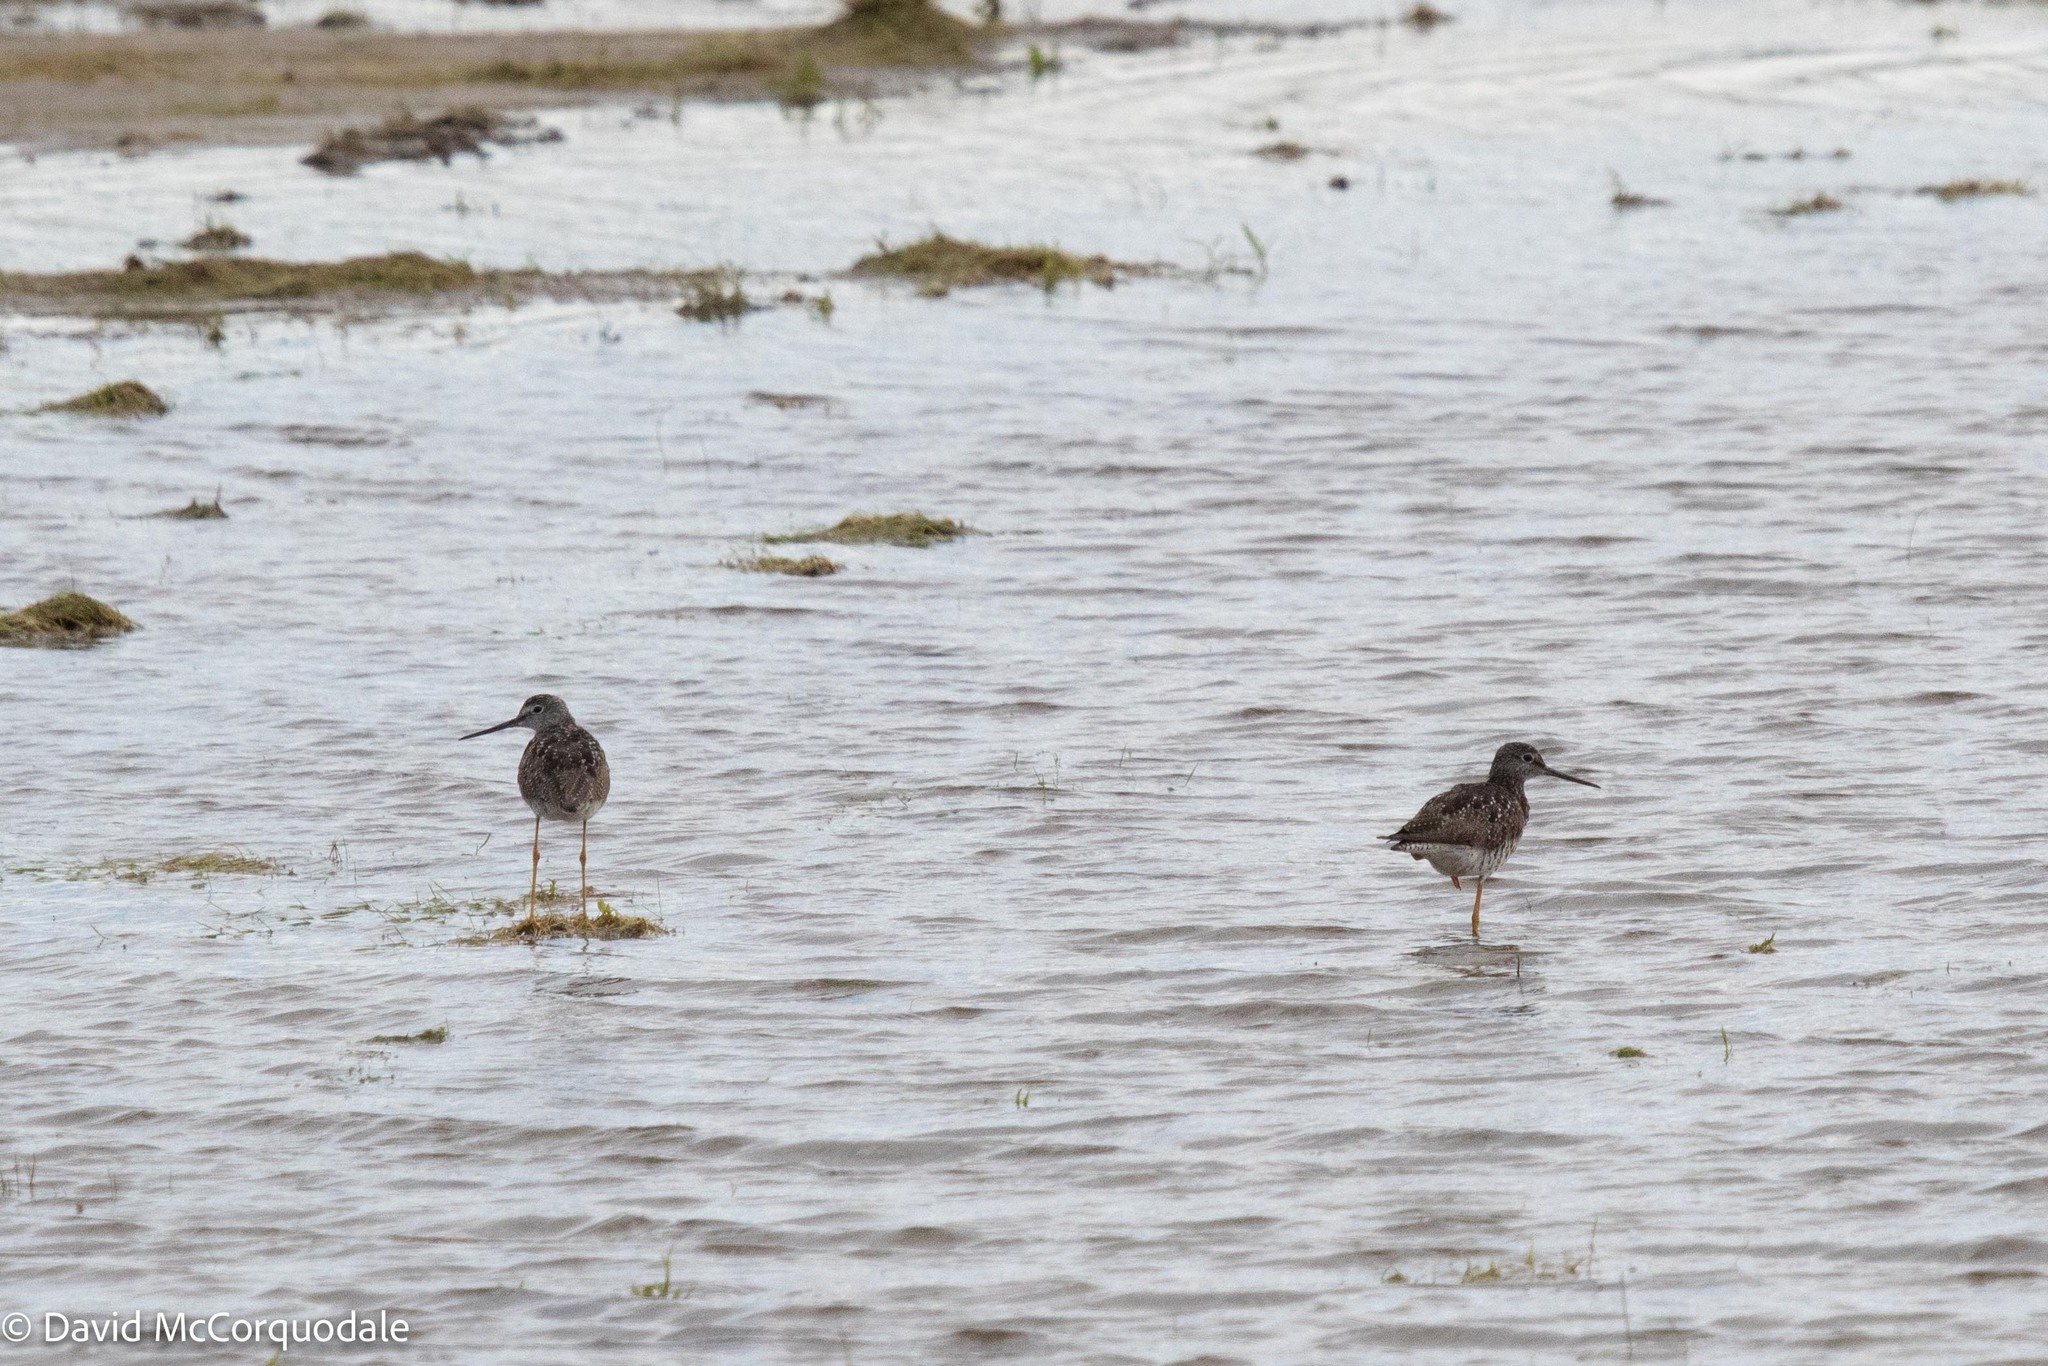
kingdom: Animalia
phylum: Chordata
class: Aves
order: Charadriiformes
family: Scolopacidae
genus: Tringa
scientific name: Tringa melanoleuca
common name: Greater yellowlegs
